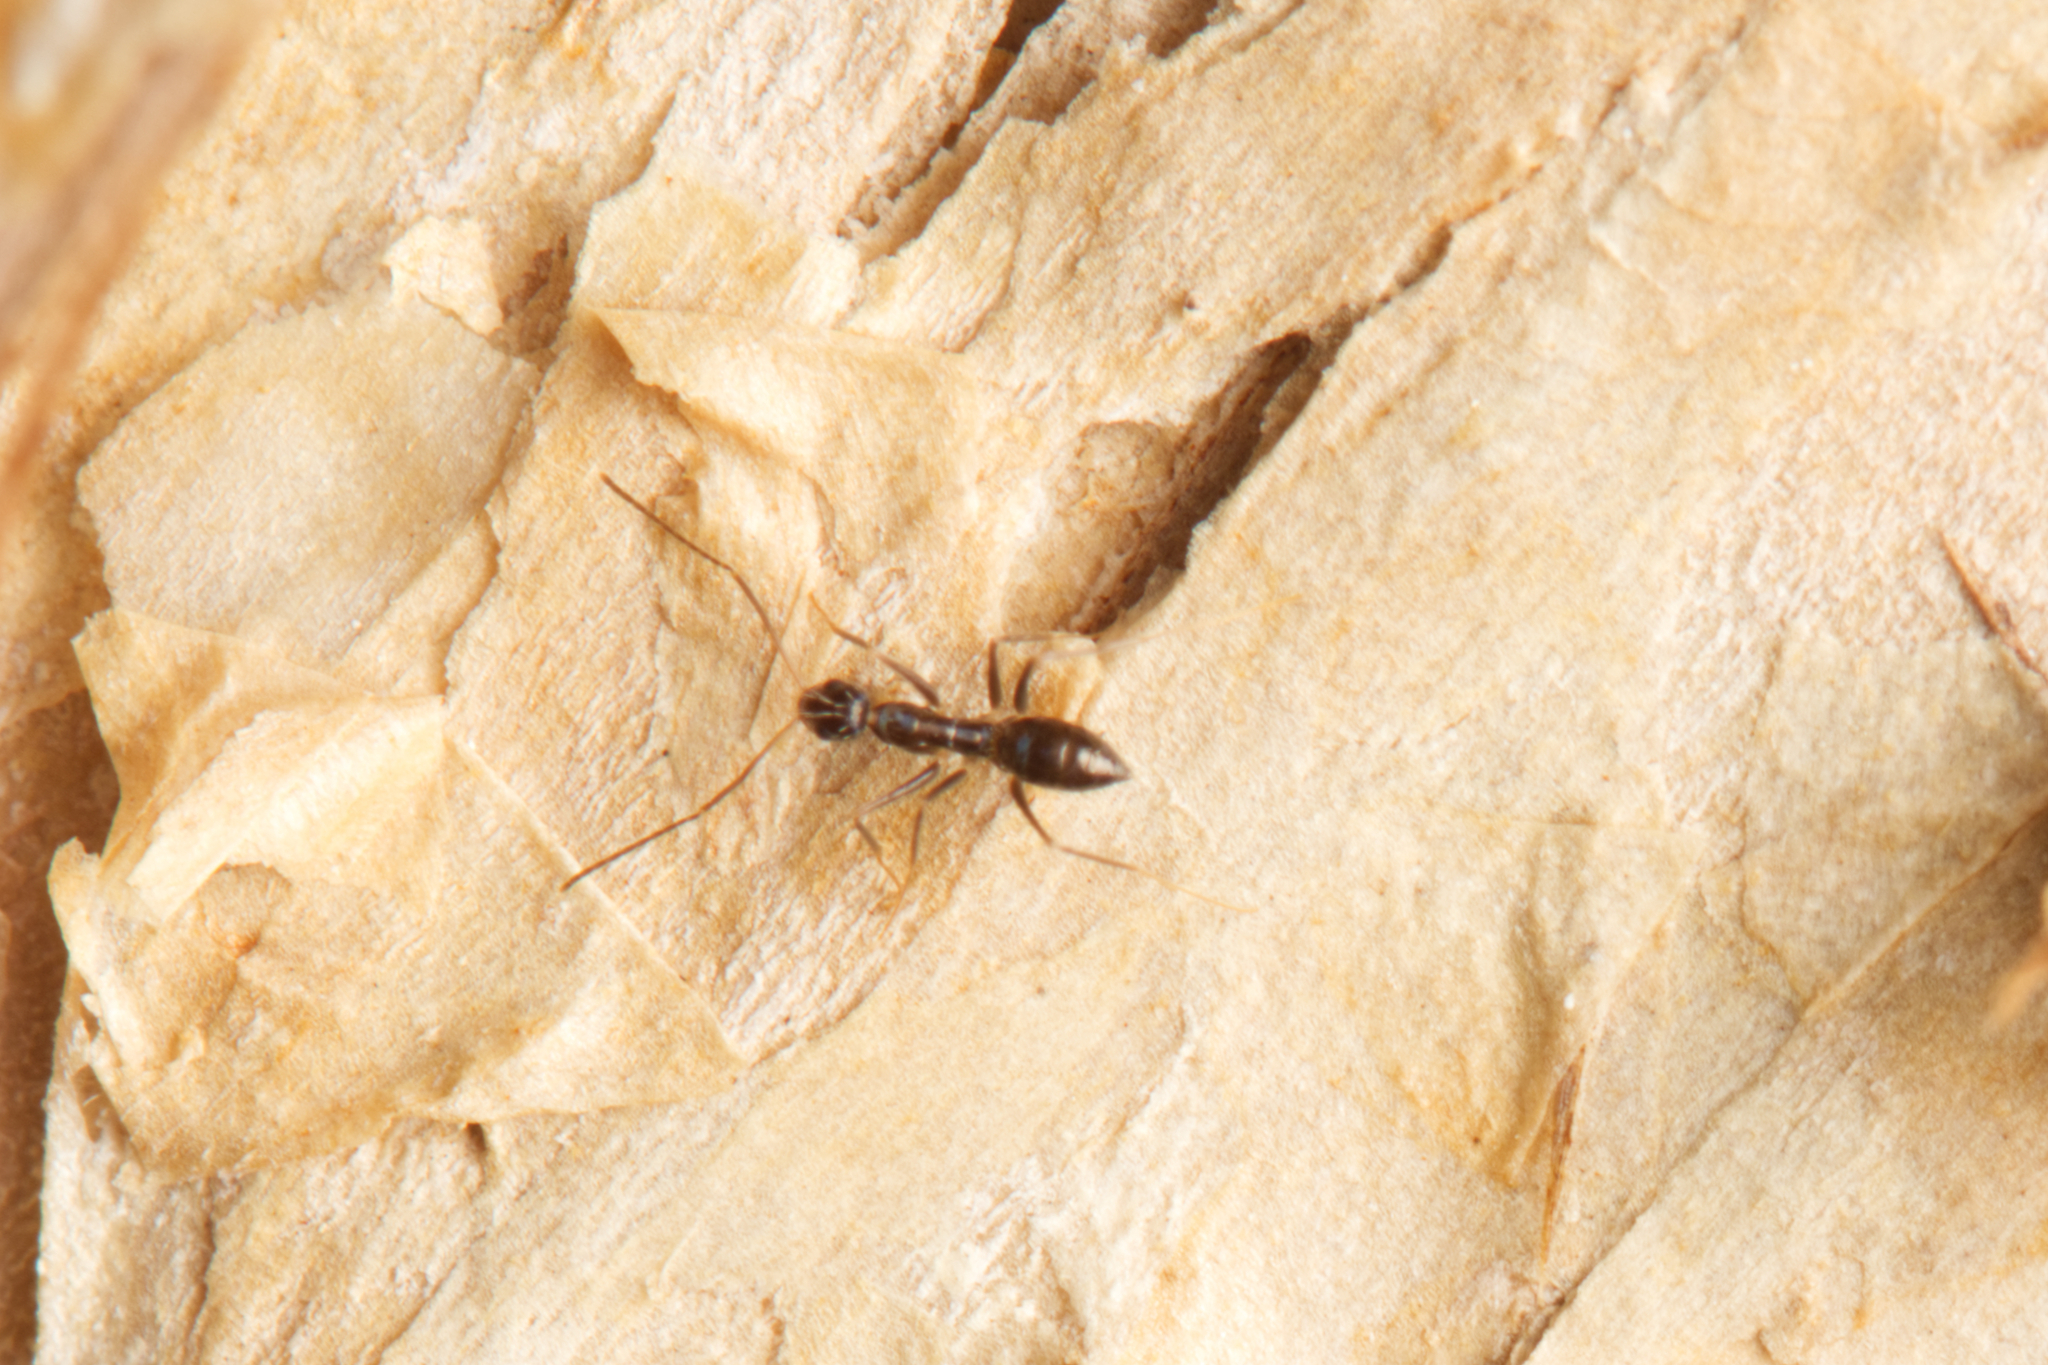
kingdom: Animalia
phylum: Arthropoda
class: Insecta
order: Hymenoptera
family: Formicidae
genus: Paratrechina
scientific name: Paratrechina longicornis
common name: Longhorned crazy ant
